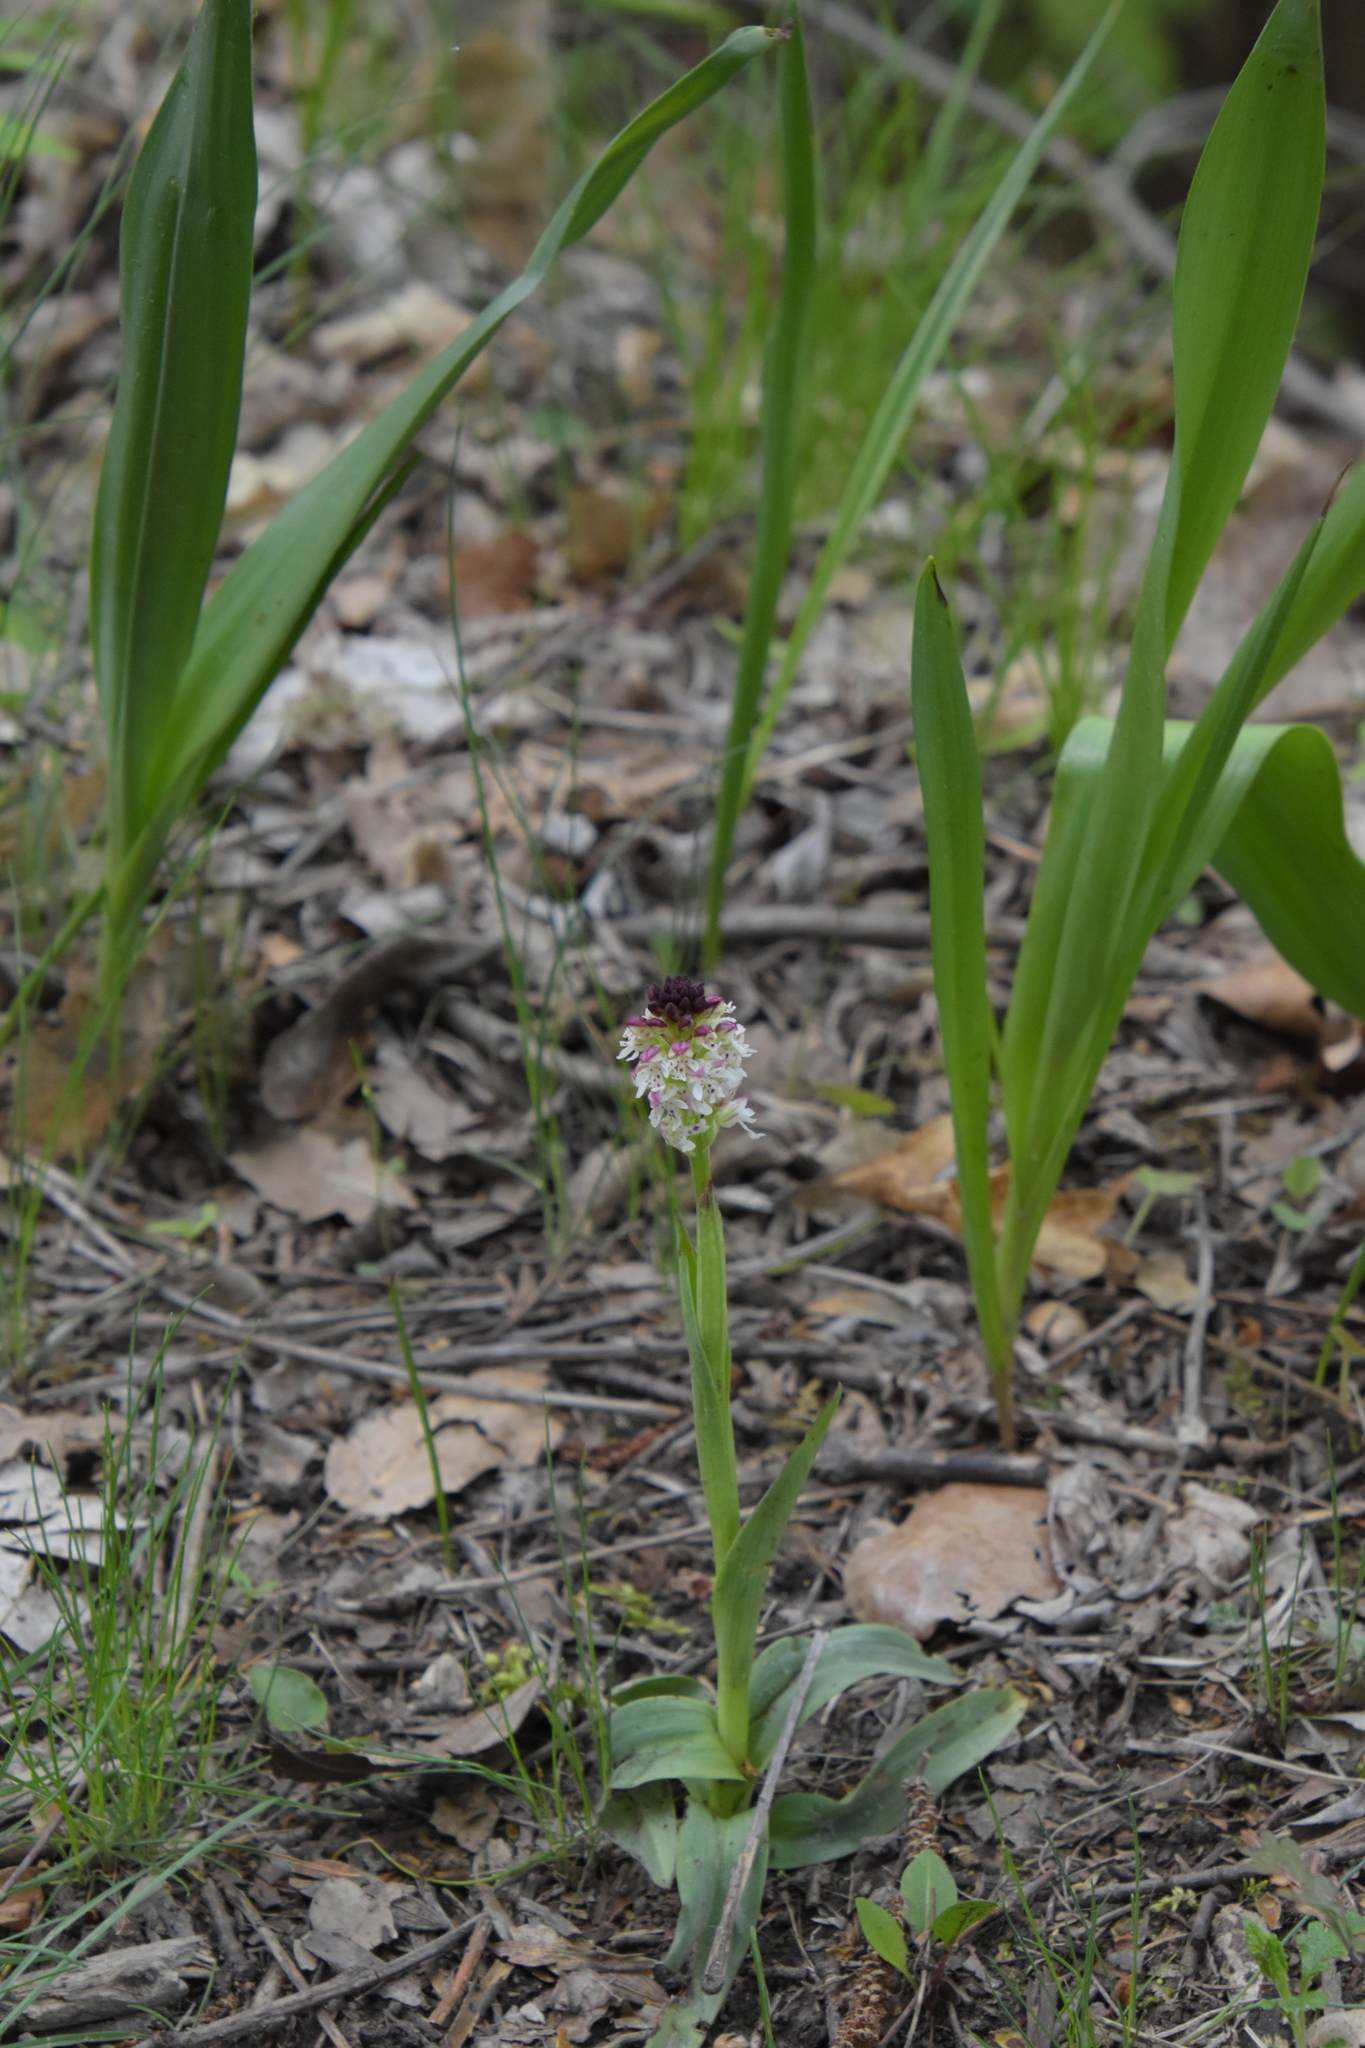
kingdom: Plantae
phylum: Tracheophyta
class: Liliopsida
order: Asparagales
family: Orchidaceae
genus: Neotinea
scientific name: Neotinea ustulata
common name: Burnt orchid
